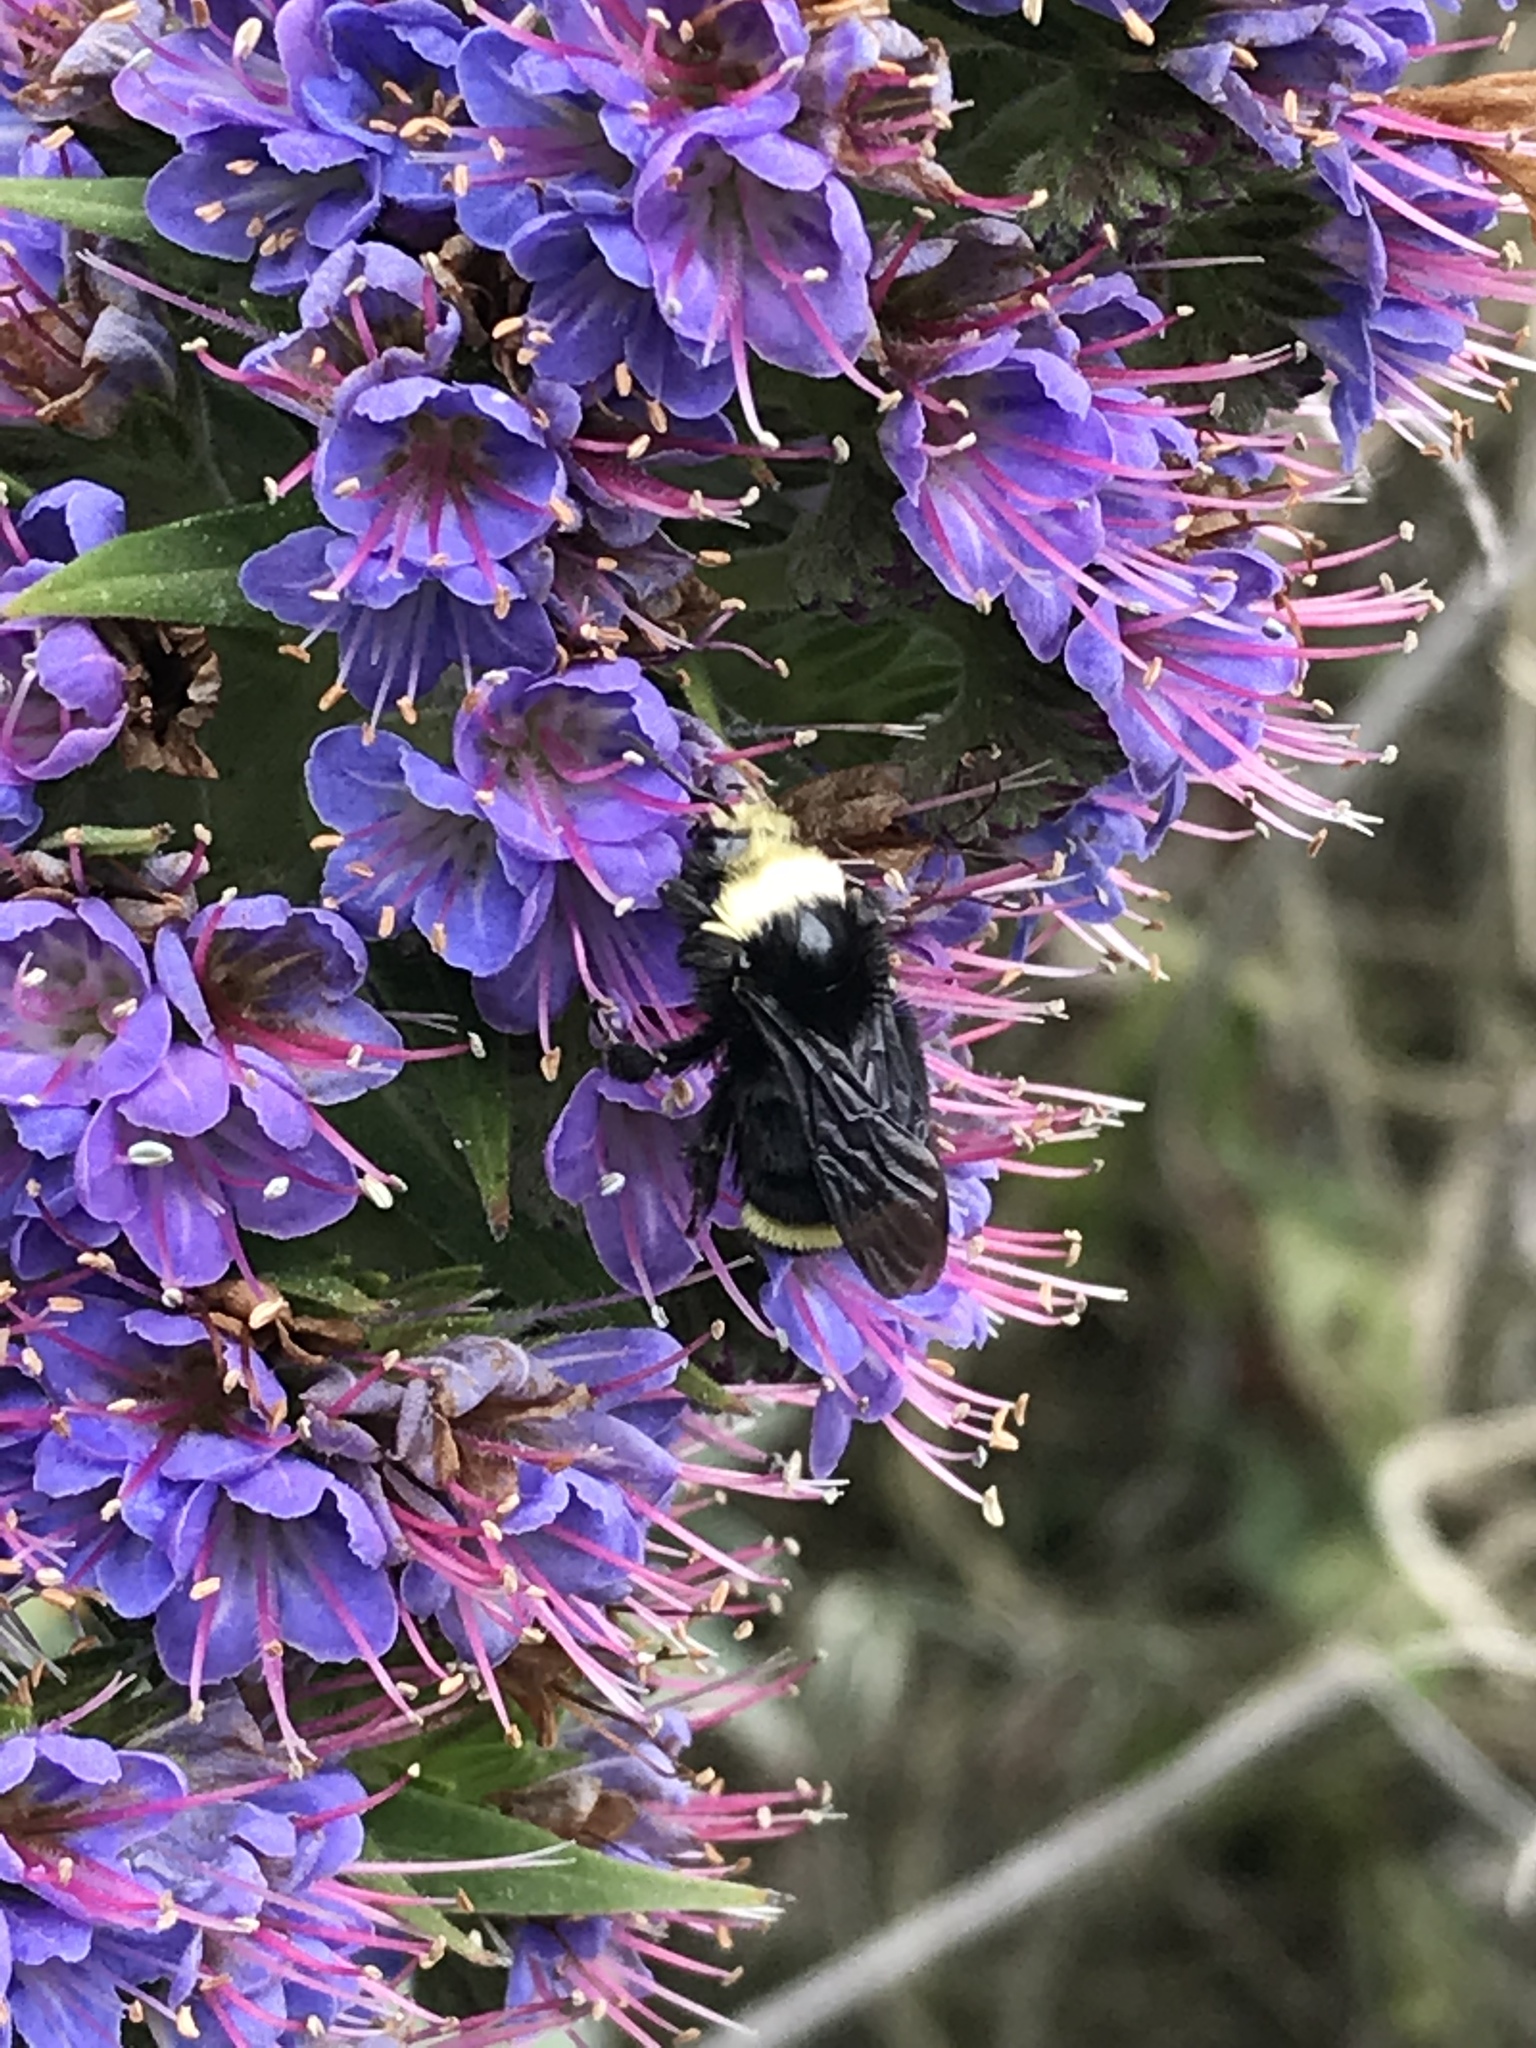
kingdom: Animalia
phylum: Arthropoda
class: Insecta
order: Hymenoptera
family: Apidae
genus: Pyrobombus
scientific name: Pyrobombus
